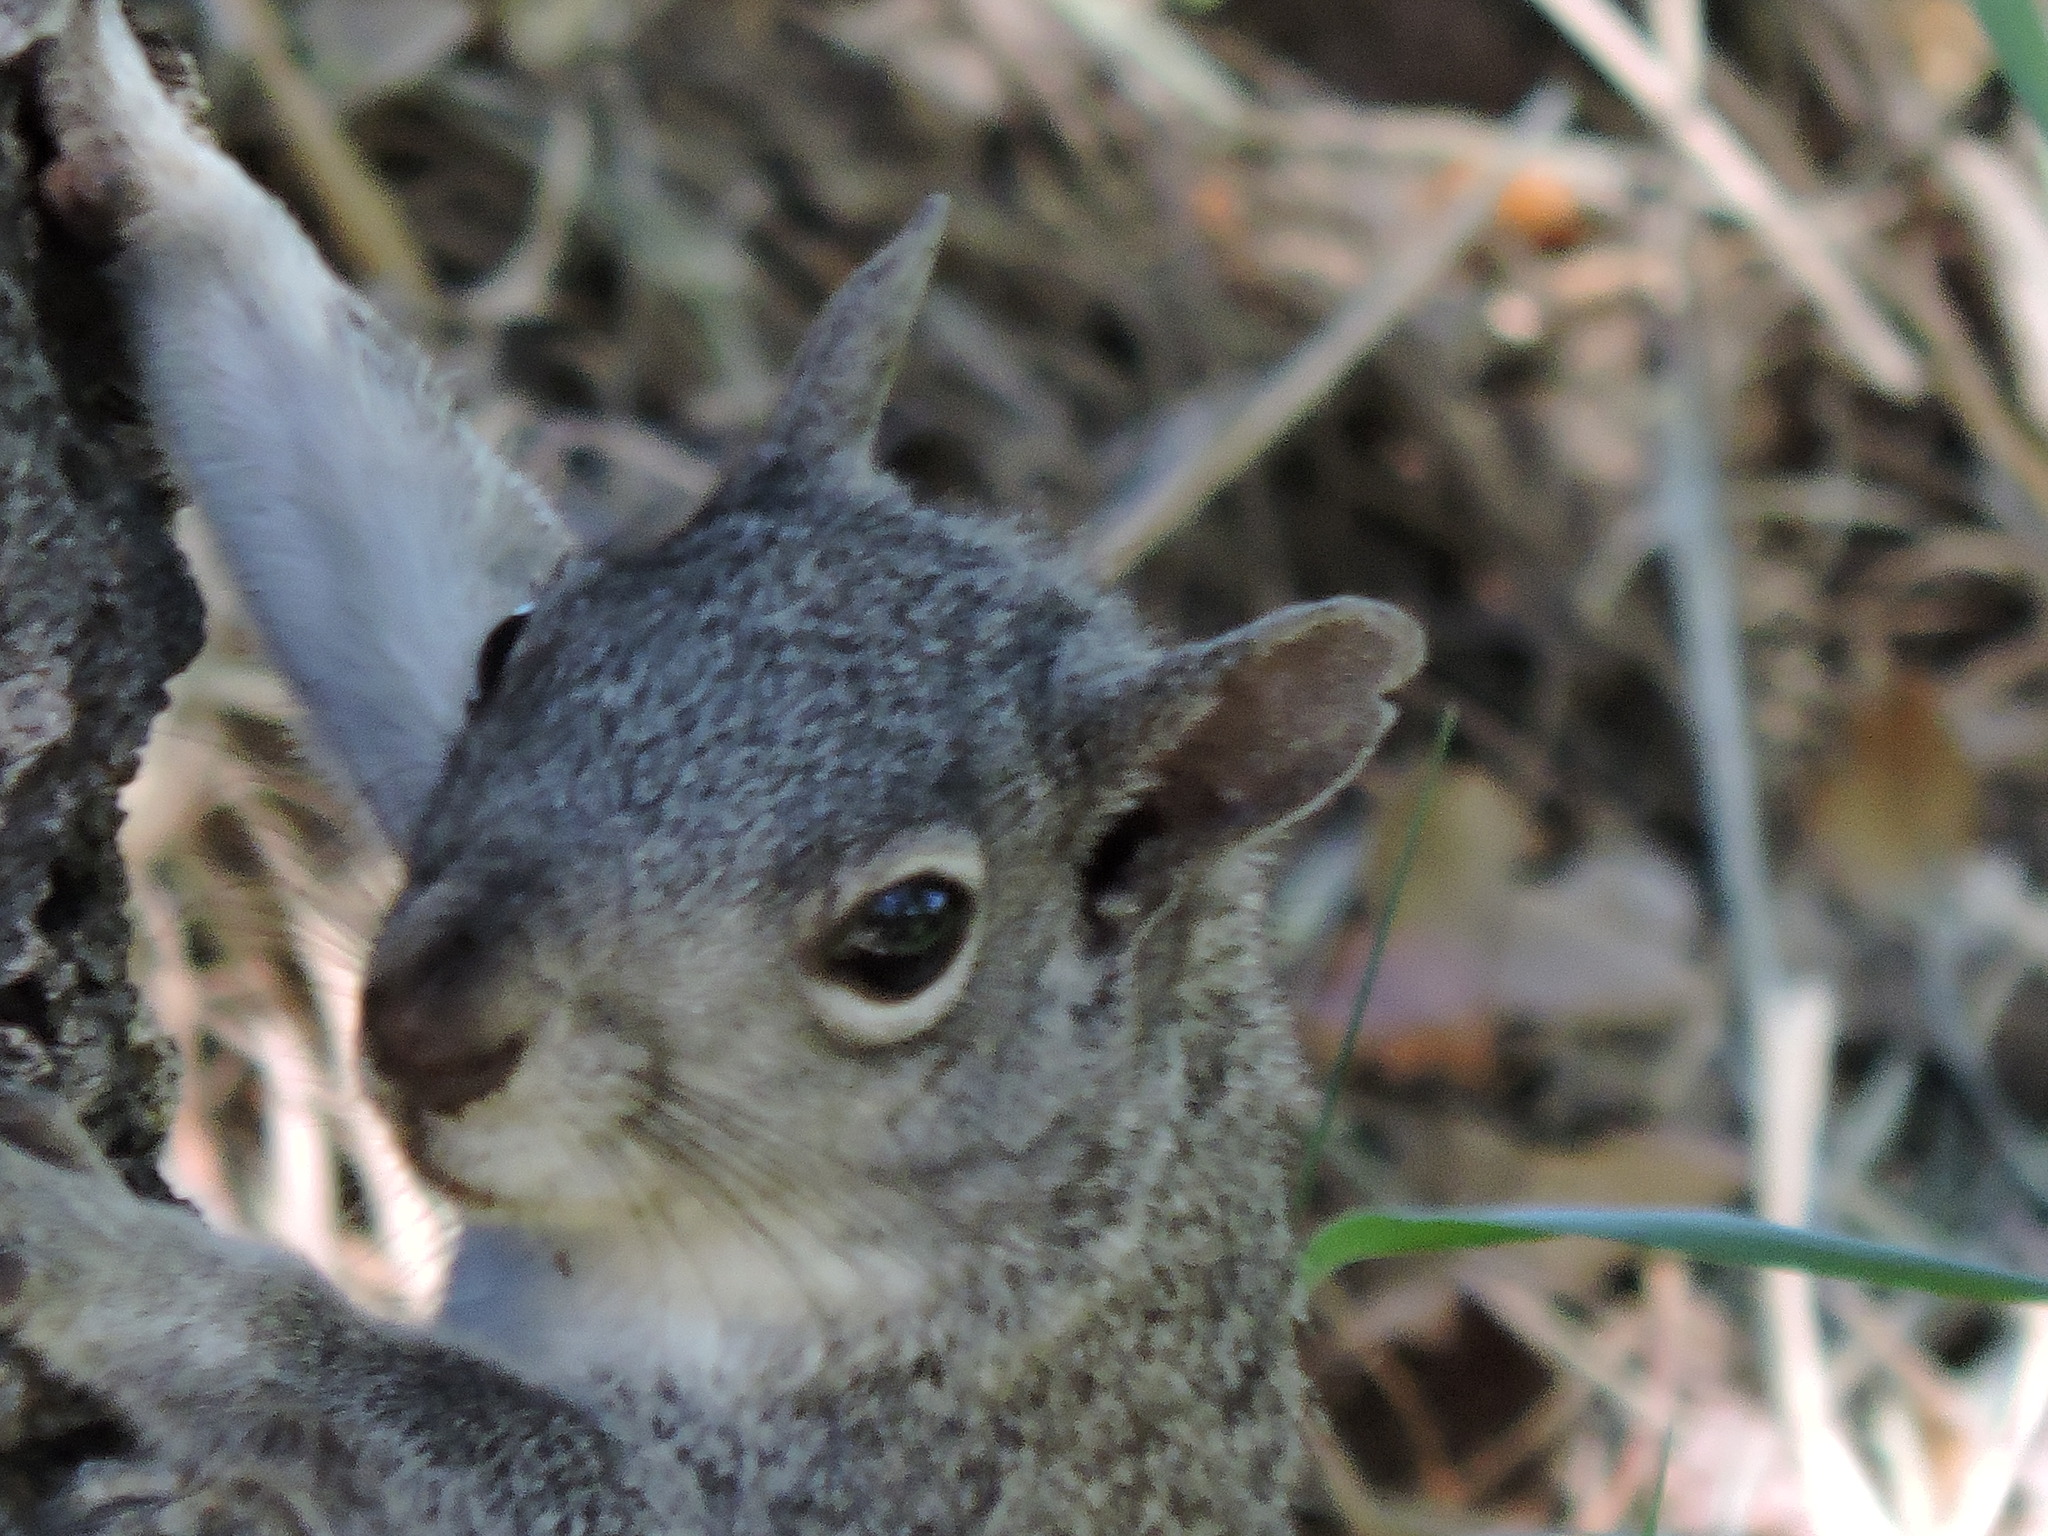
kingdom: Animalia
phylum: Chordata
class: Mammalia
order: Rodentia
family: Sciuridae
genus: Sciurus
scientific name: Sciurus griseus
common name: Western gray squirrel
